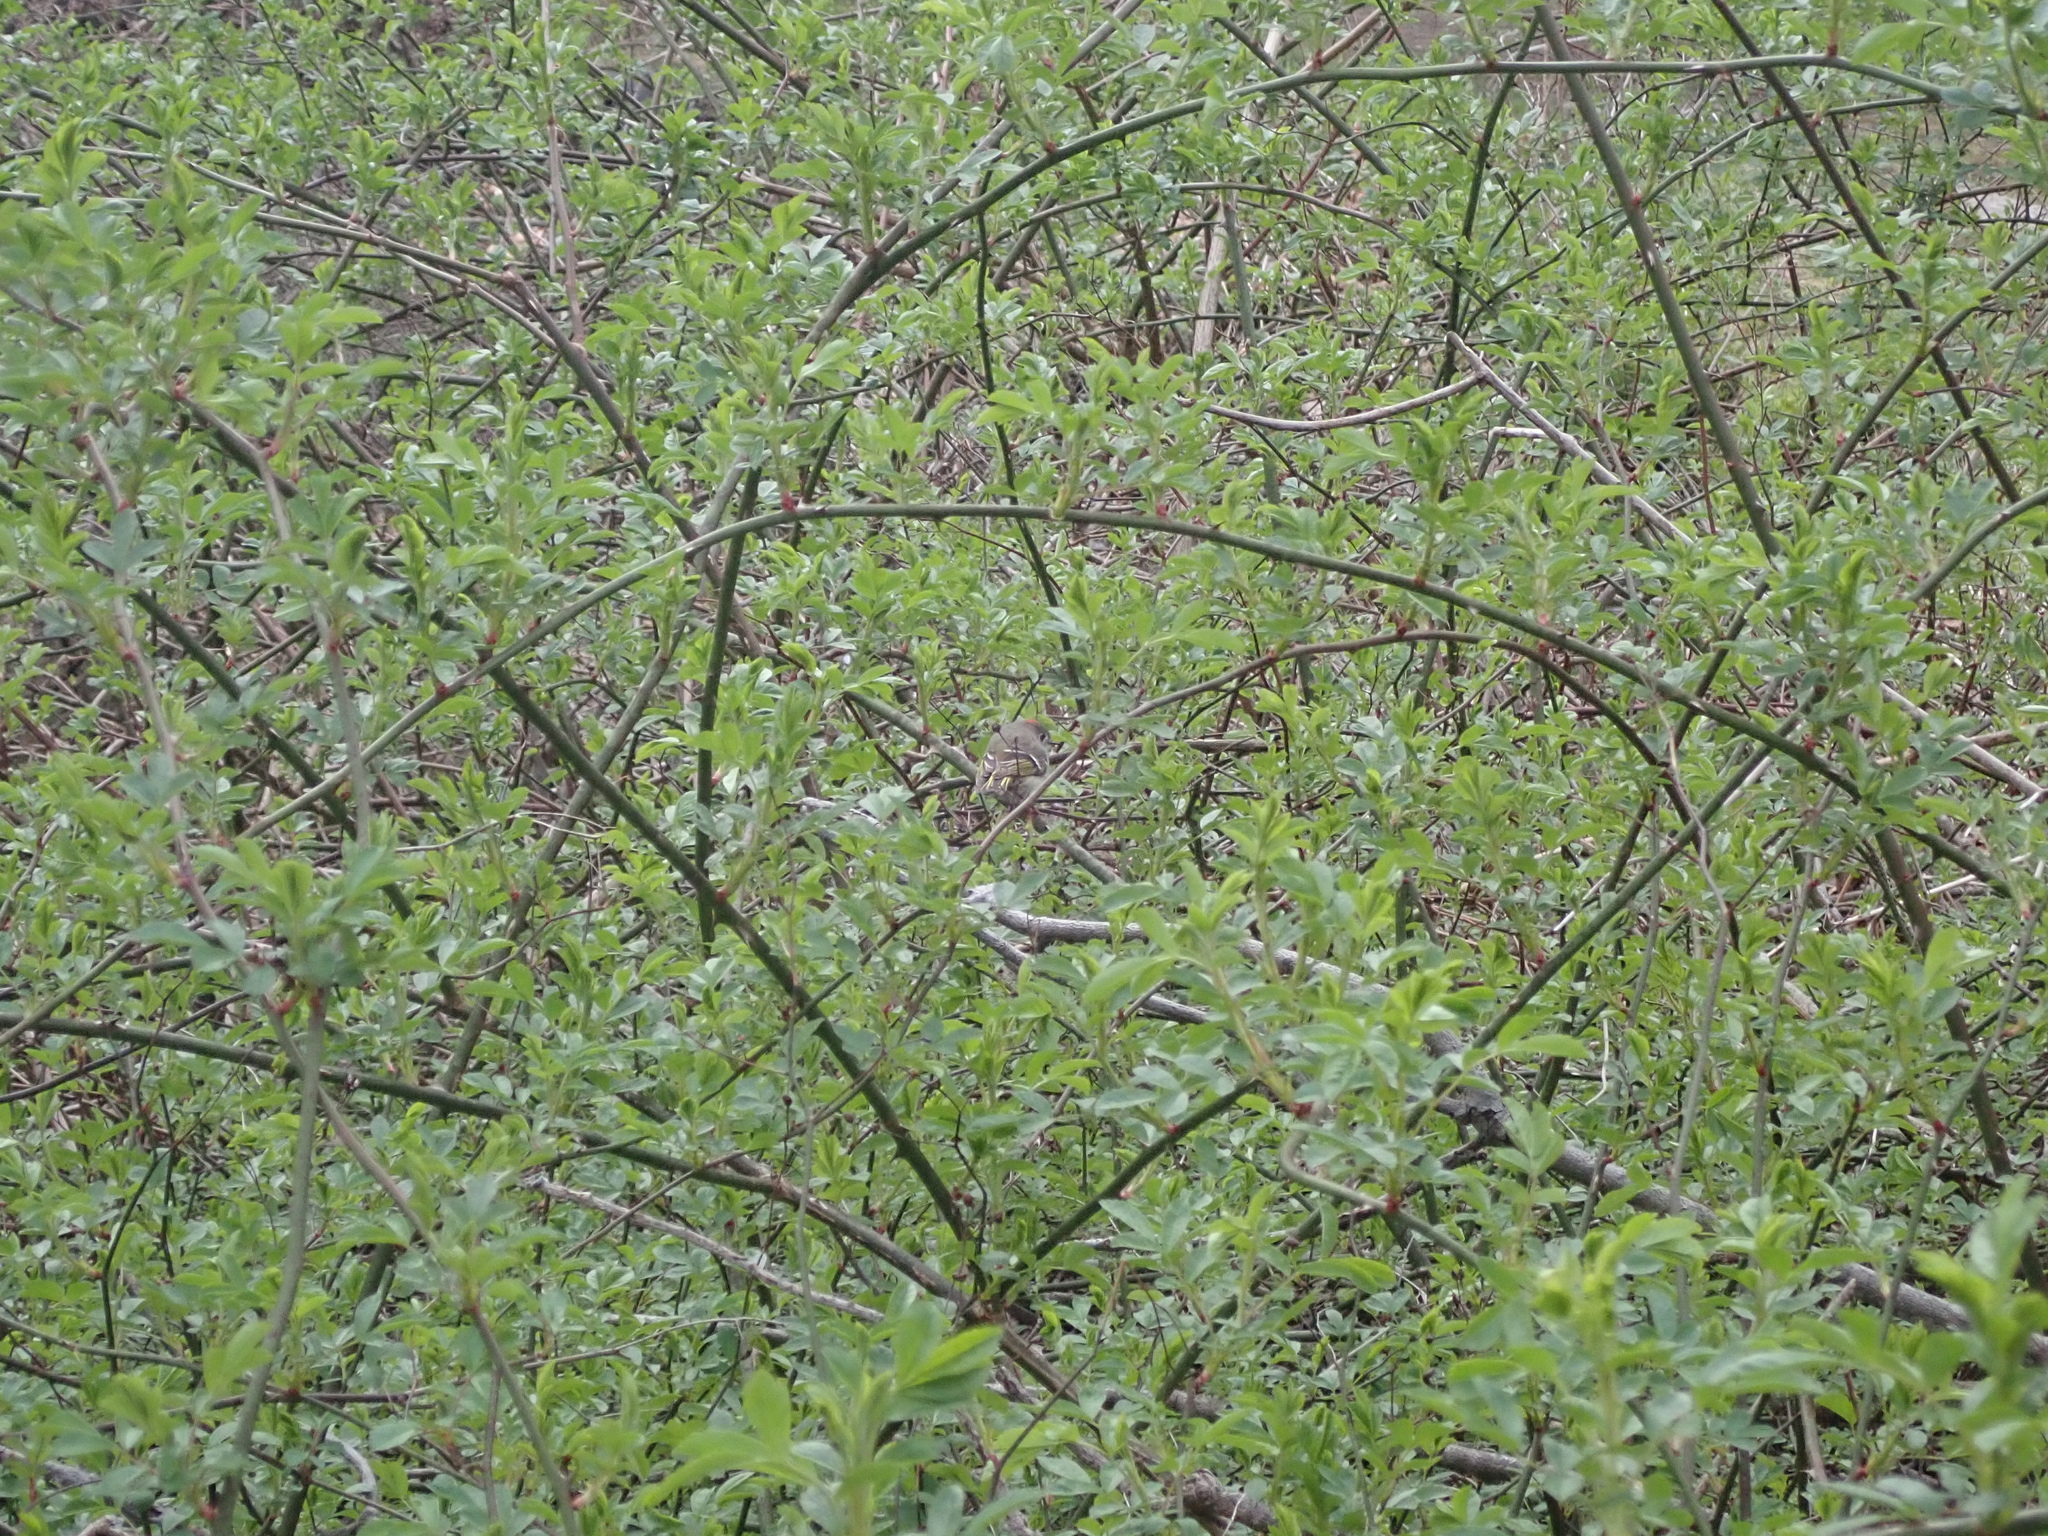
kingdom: Animalia
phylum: Chordata
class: Aves
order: Passeriformes
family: Regulidae
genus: Regulus
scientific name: Regulus calendula
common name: Ruby-crowned kinglet
